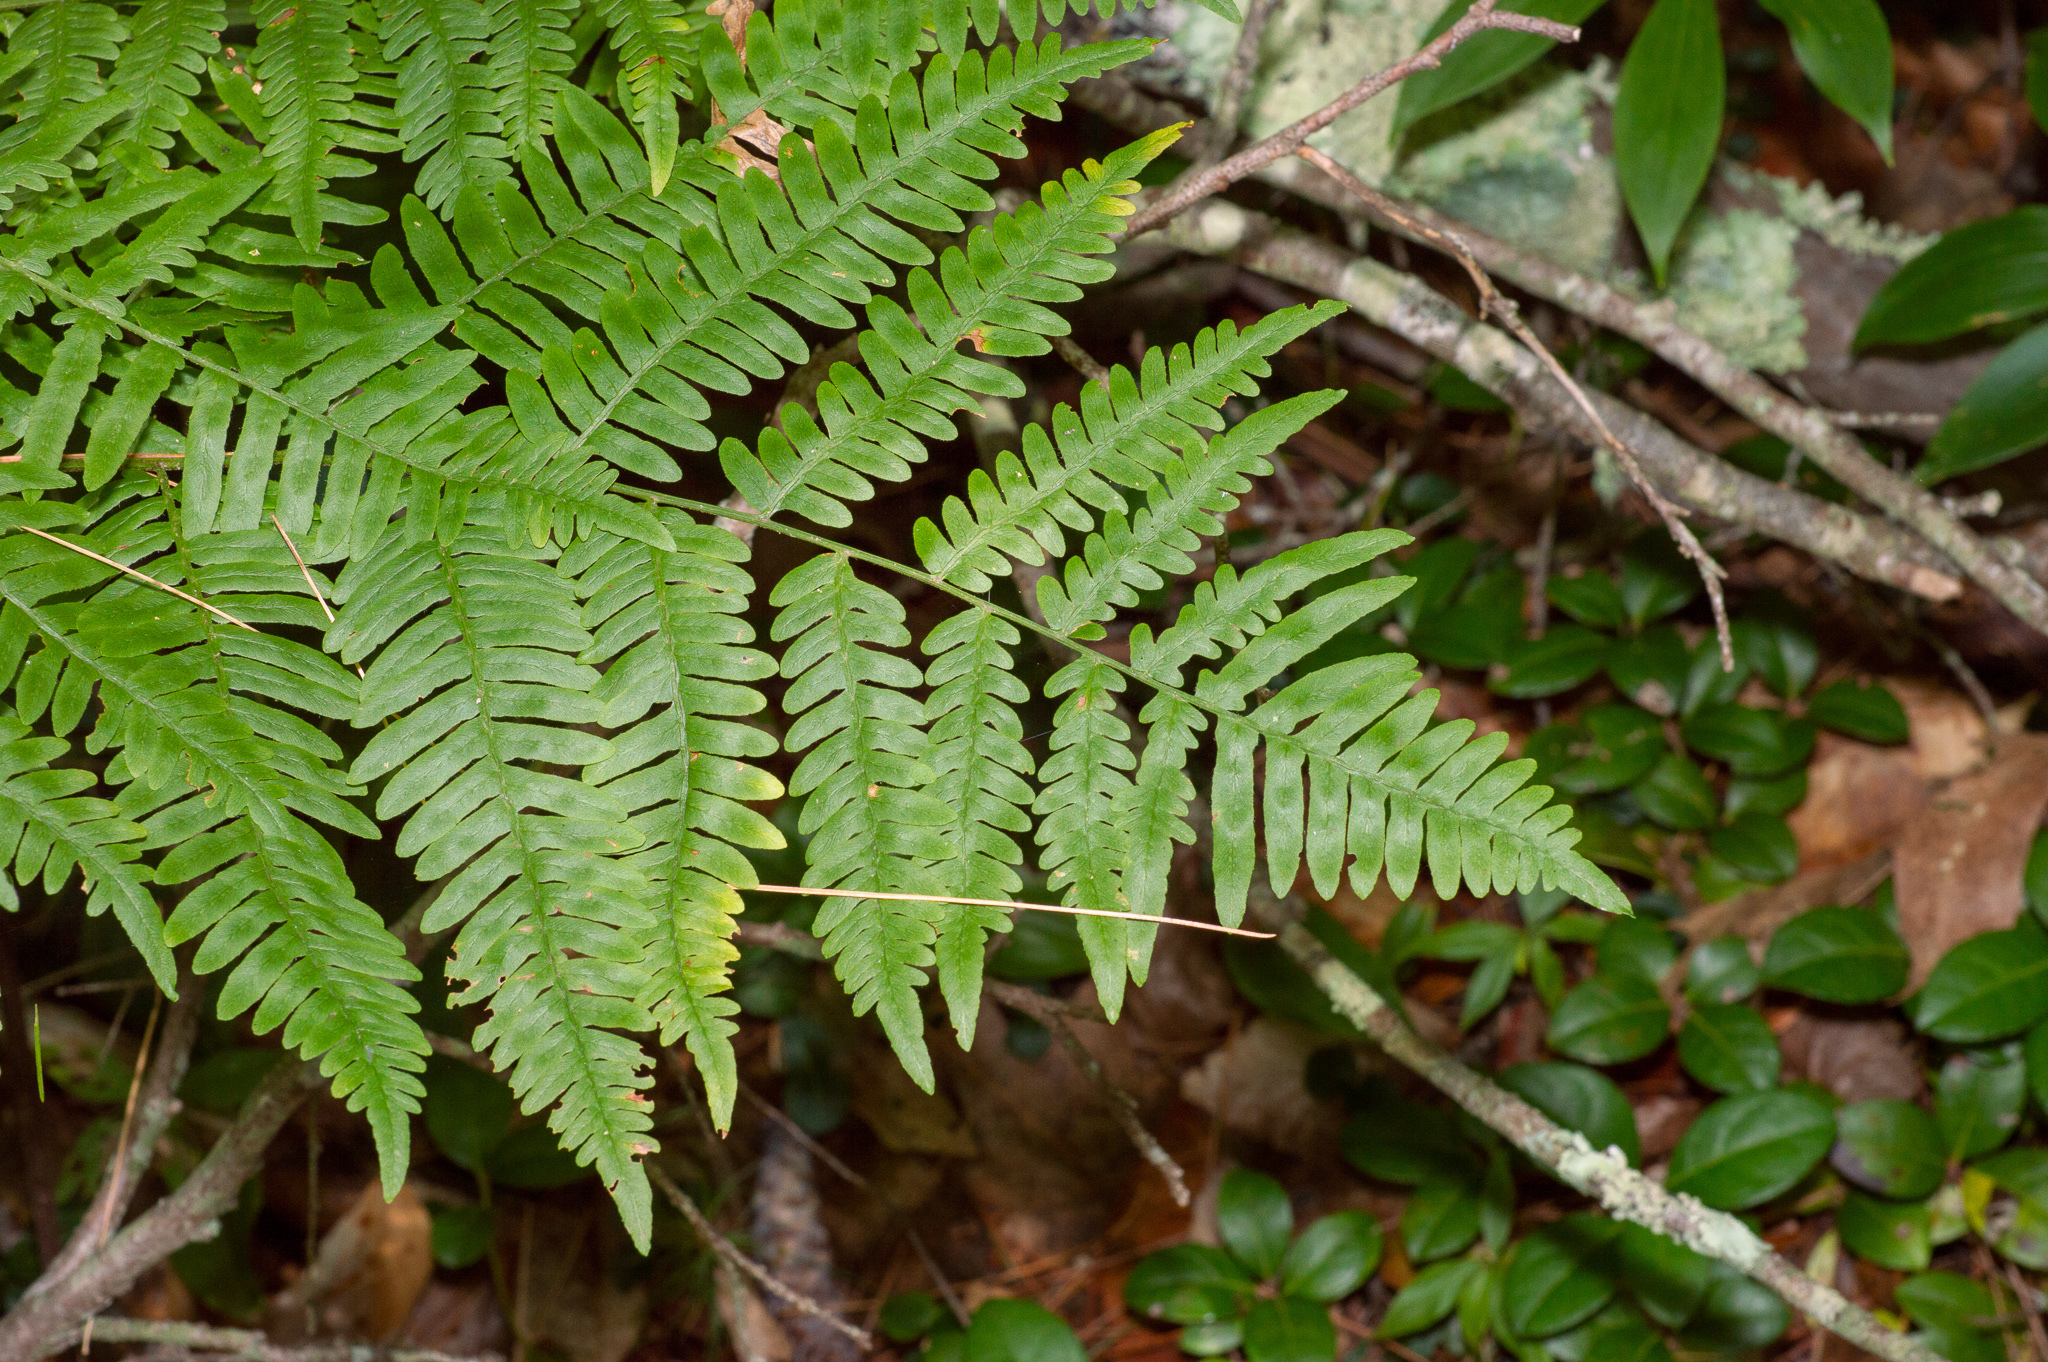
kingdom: Plantae
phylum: Tracheophyta
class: Polypodiopsida
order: Polypodiales
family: Dennstaedtiaceae
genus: Pteridium
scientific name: Pteridium aquilinum
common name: Bracken
